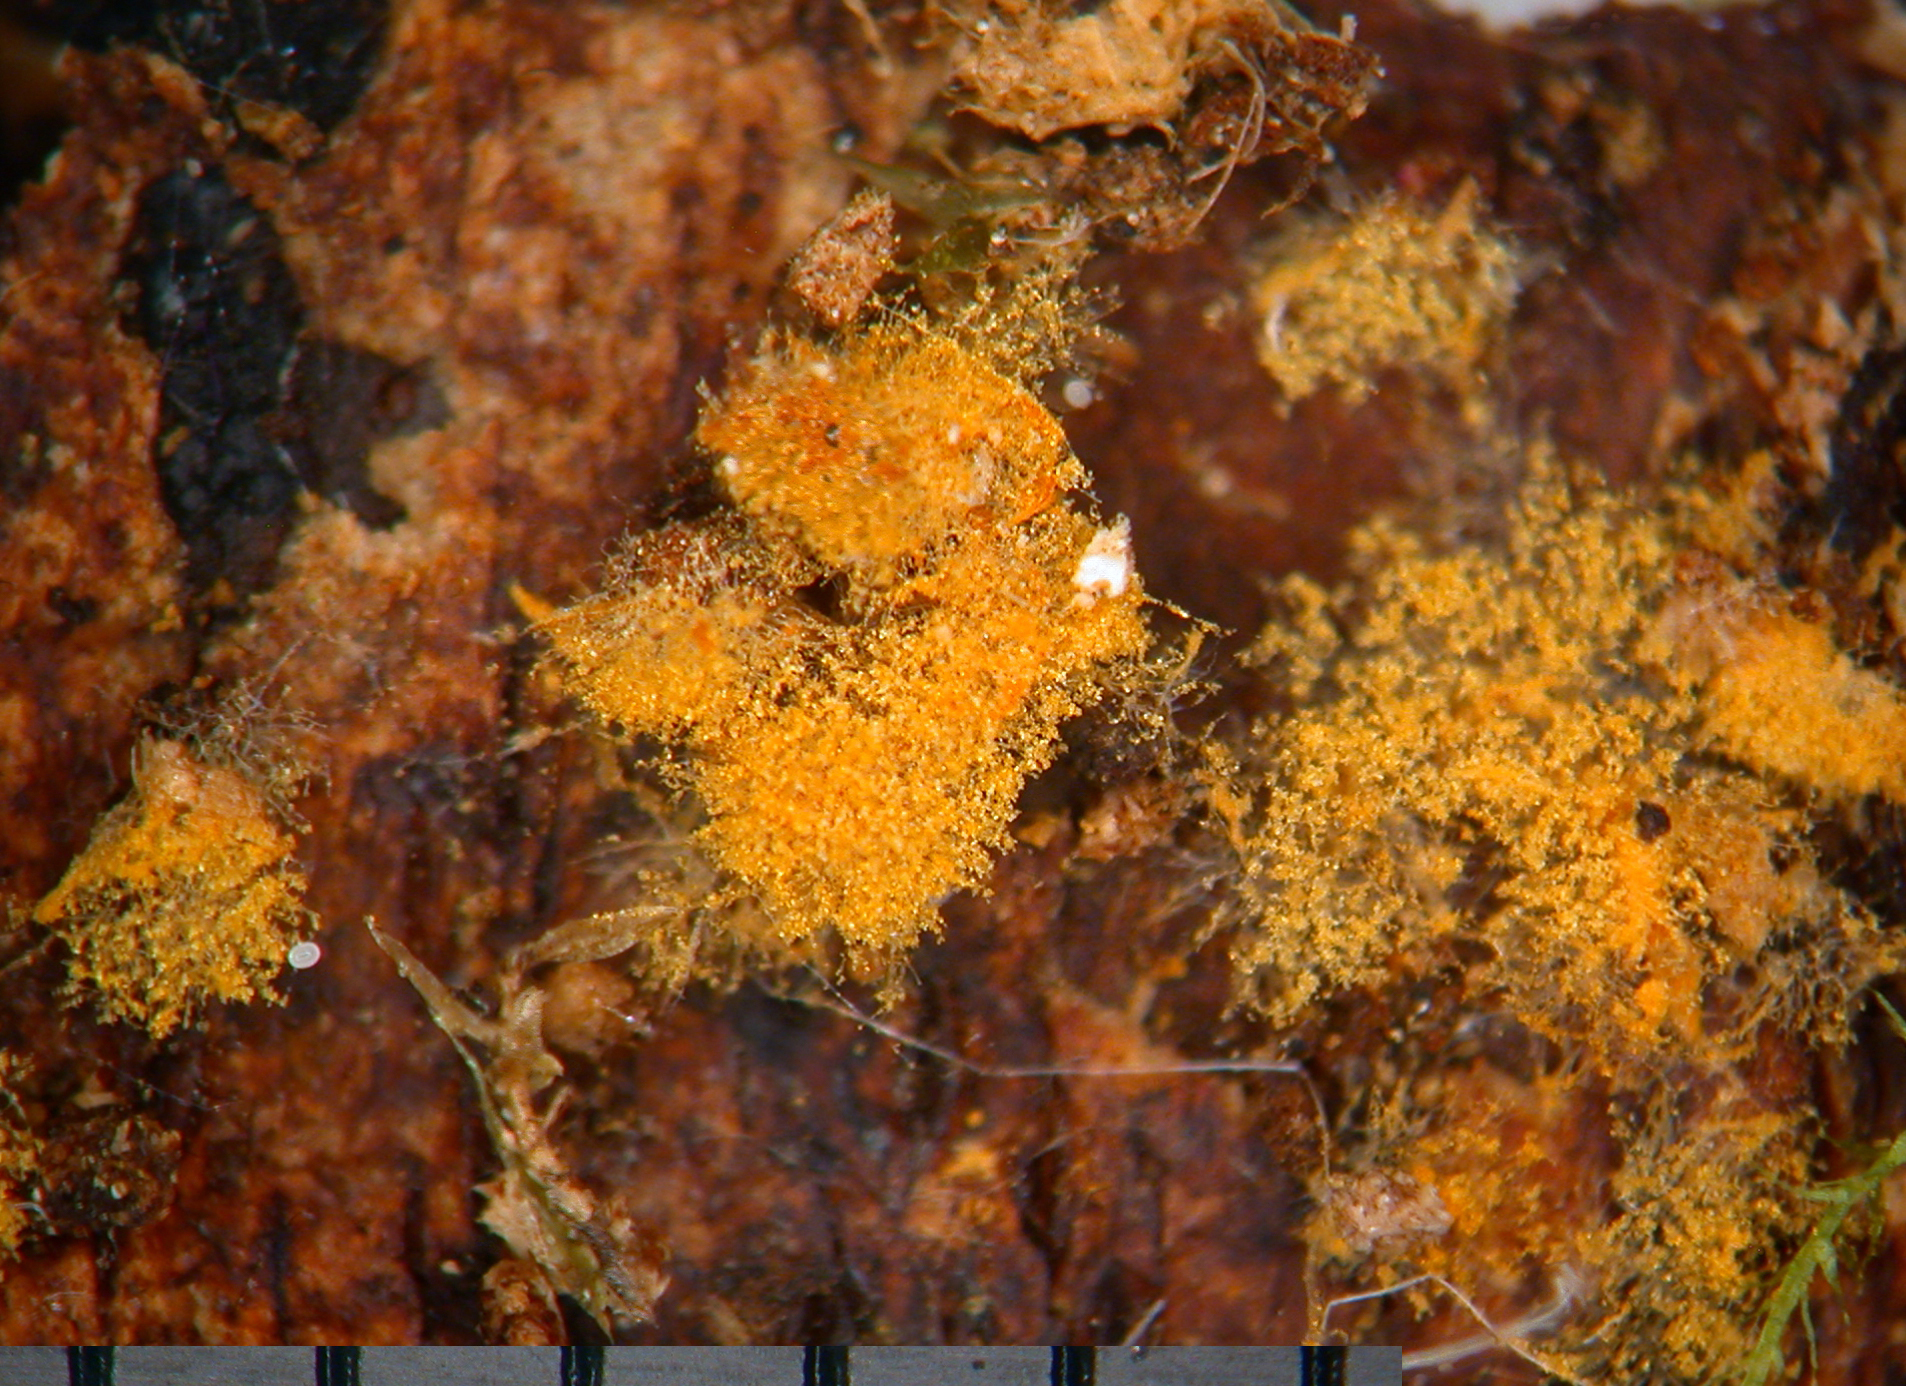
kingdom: Fungi
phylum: Basidiomycota
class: Agaricomycetes
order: Cantharellales
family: Botryobasidiaceae
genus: Botryobasidium
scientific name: Botryobasidium aureum
